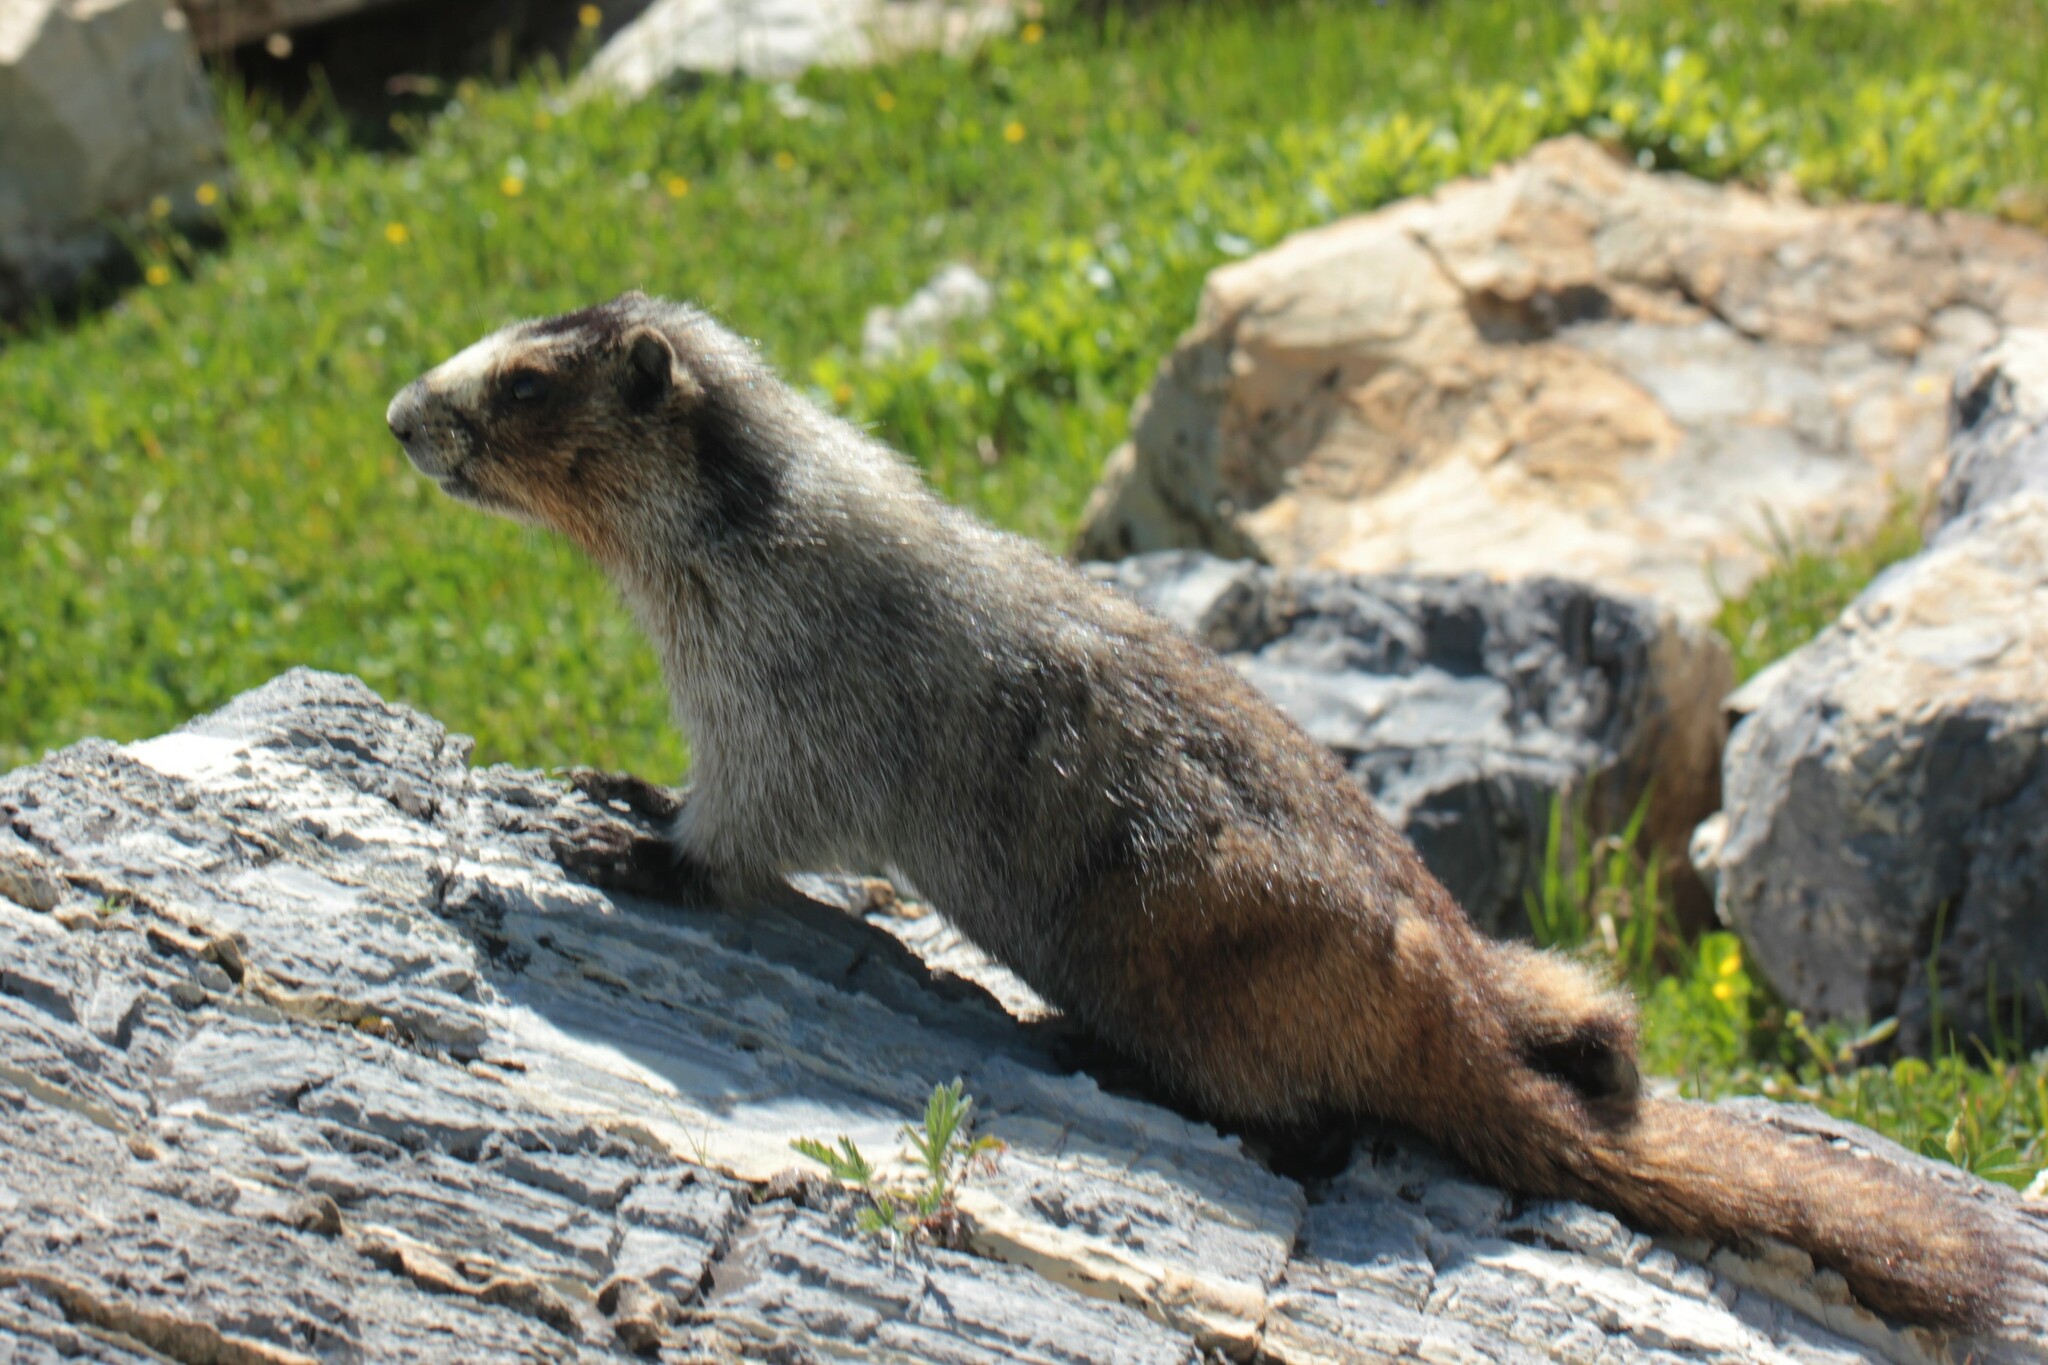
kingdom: Animalia
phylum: Chordata
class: Mammalia
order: Rodentia
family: Sciuridae
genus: Marmota
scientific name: Marmota caligata
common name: Hoary marmot
